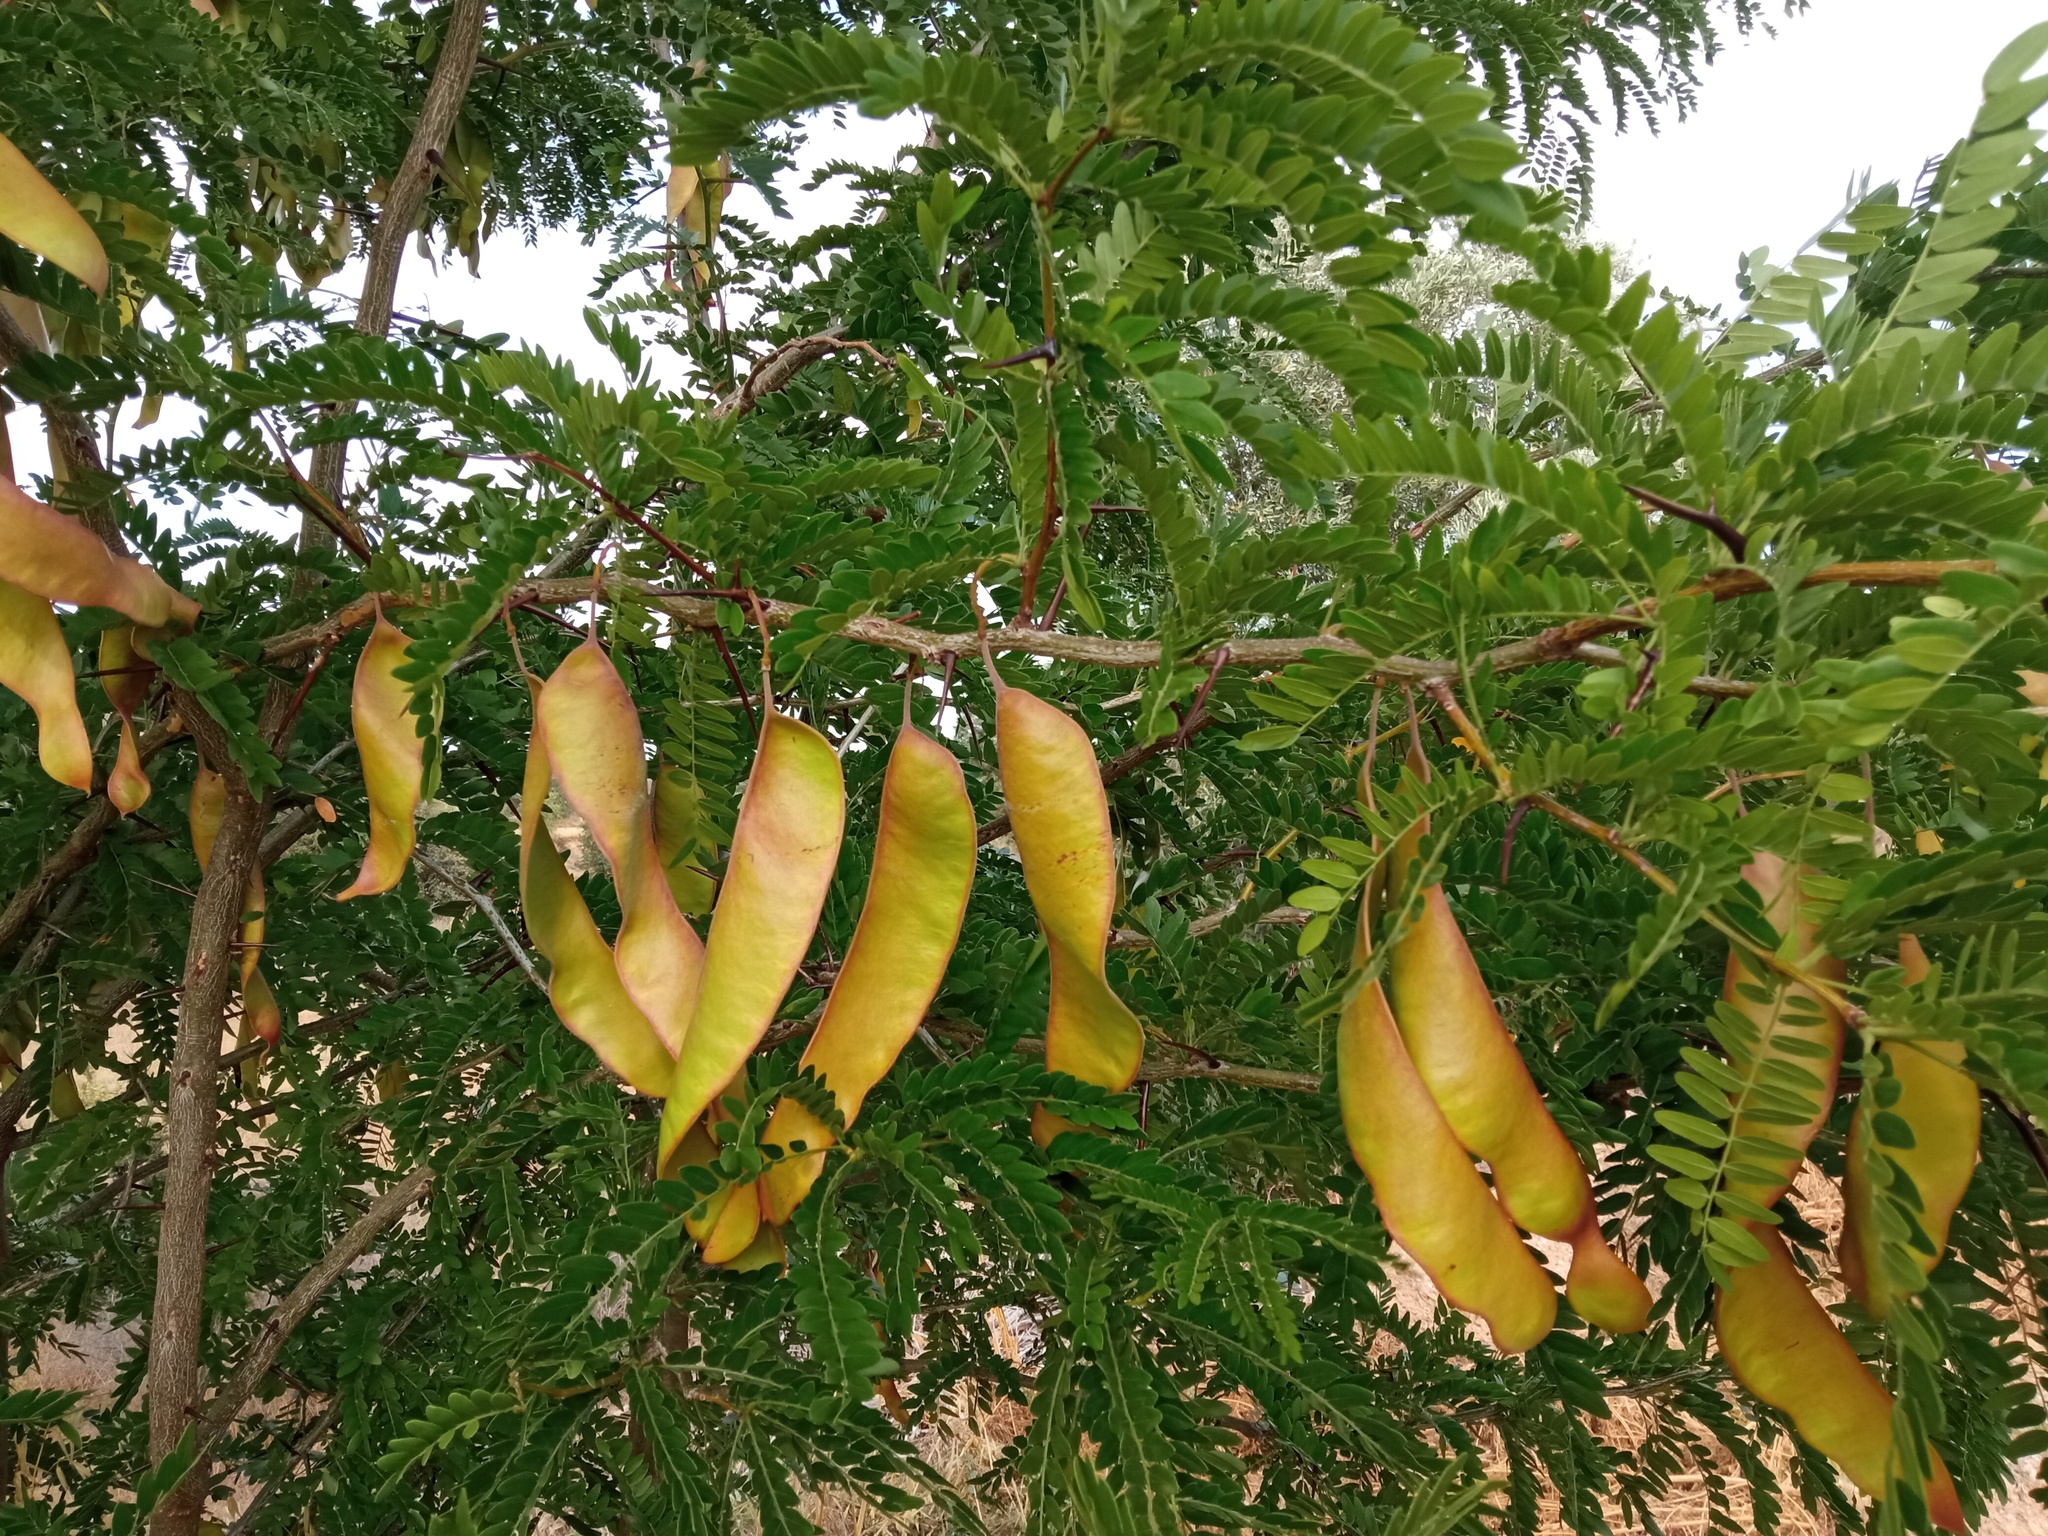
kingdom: Plantae
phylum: Tracheophyta
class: Magnoliopsida
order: Fabales
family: Fabaceae
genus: Gleditsia
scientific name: Gleditsia triacanthos
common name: Common honeylocust
